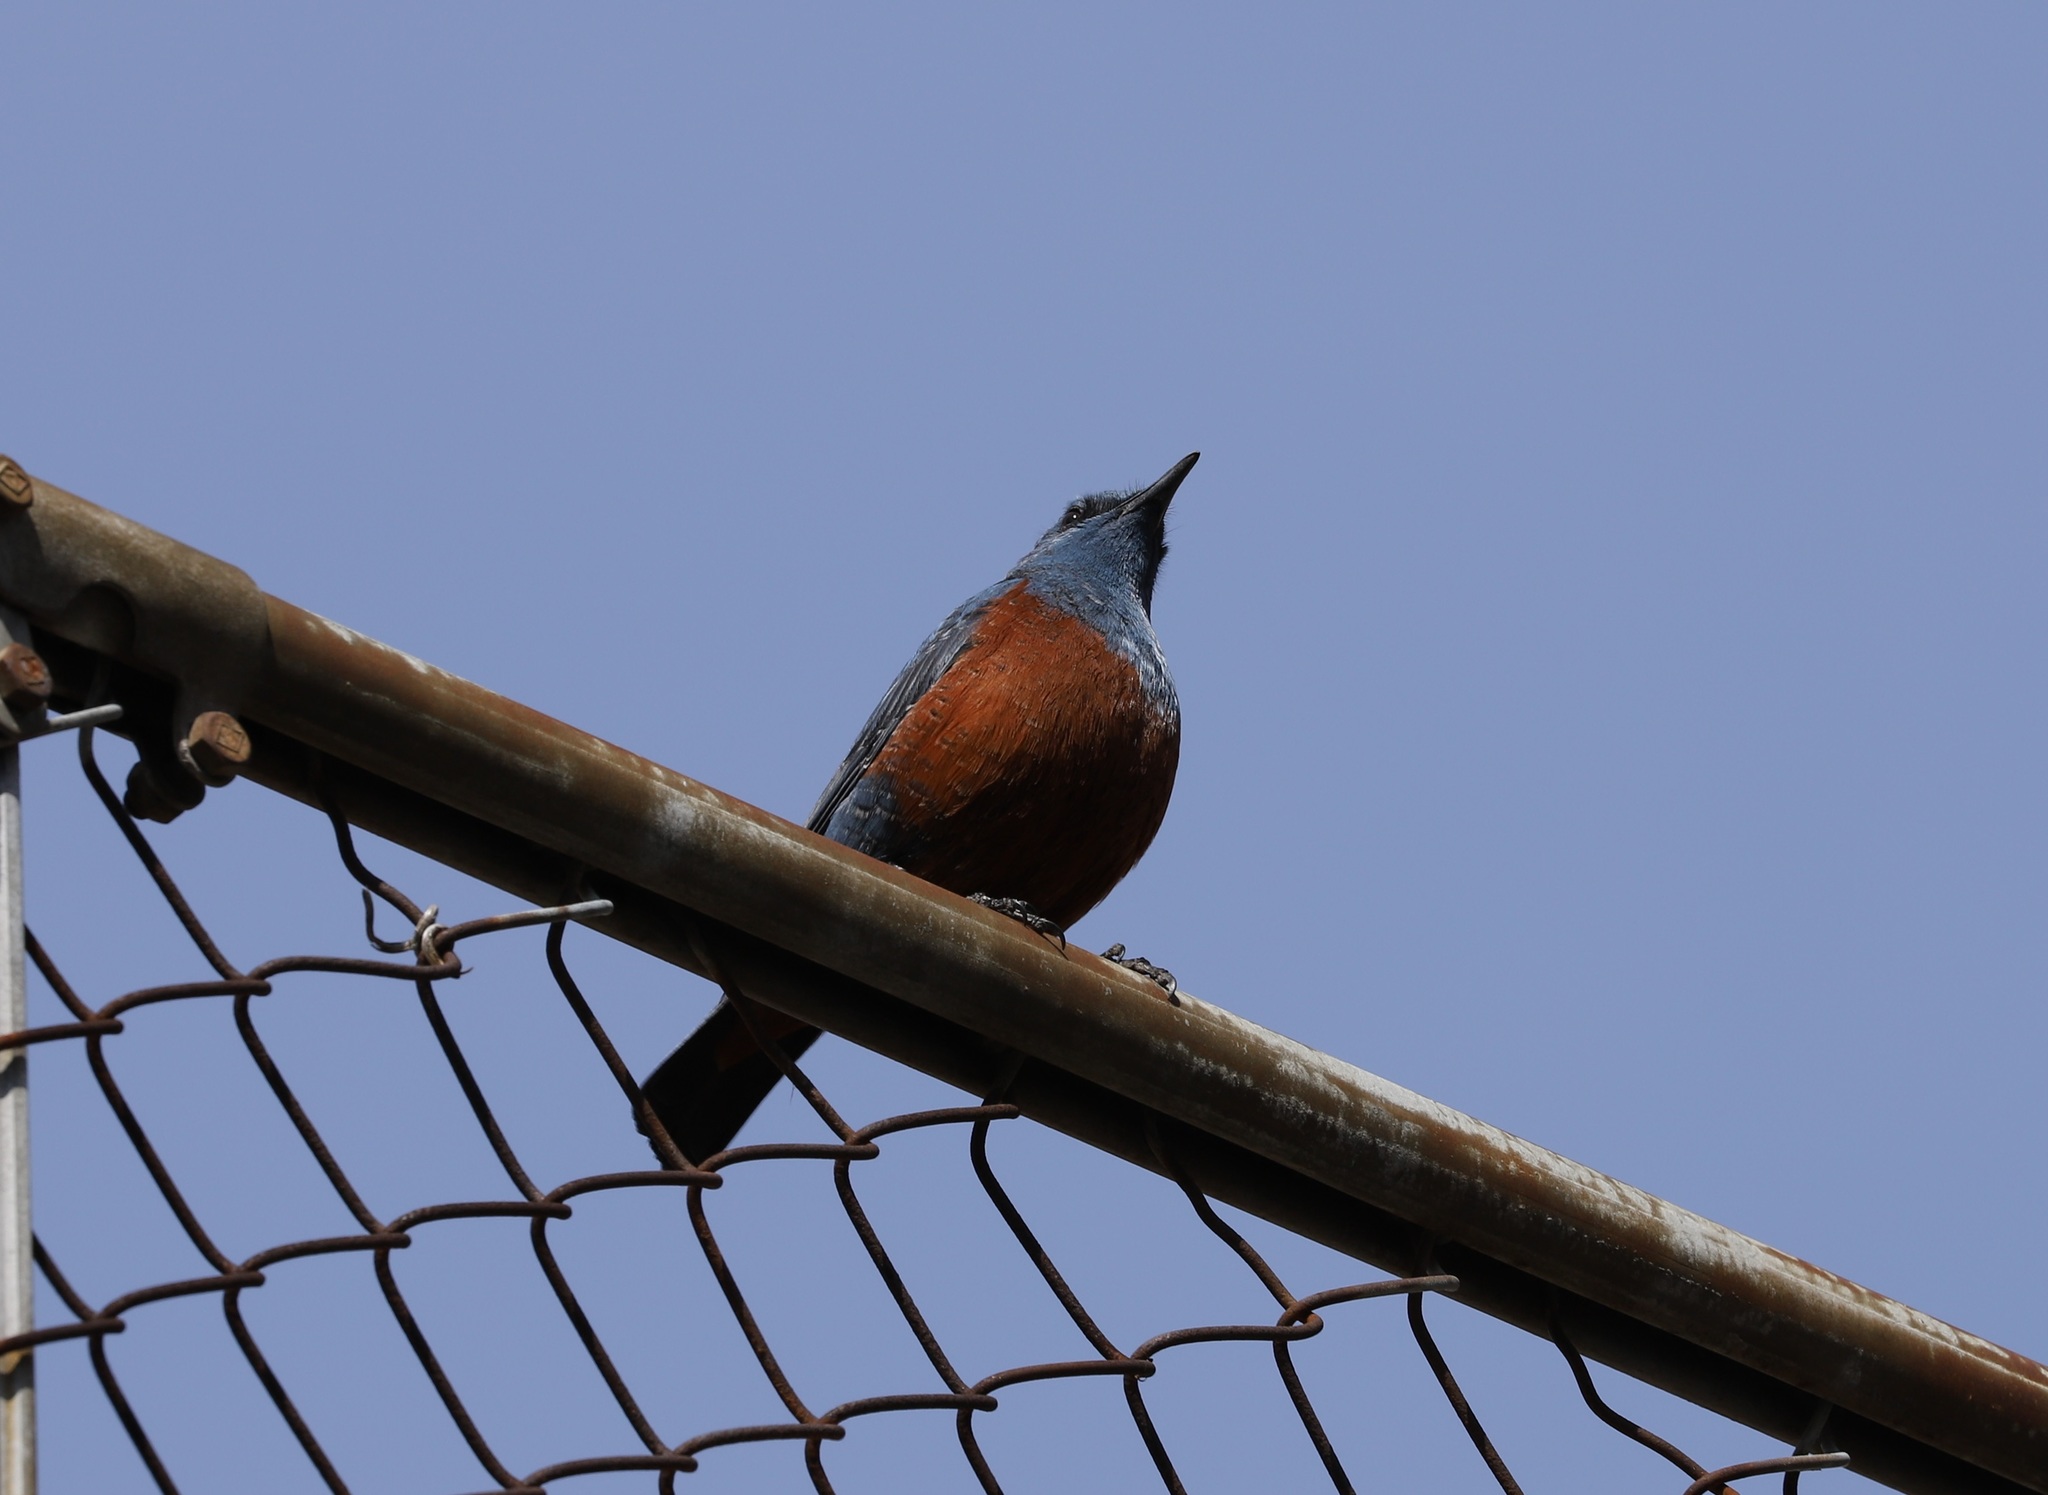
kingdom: Animalia
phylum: Chordata
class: Aves
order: Passeriformes
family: Muscicapidae
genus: Monticola
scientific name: Monticola solitarius
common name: Blue rock thrush
